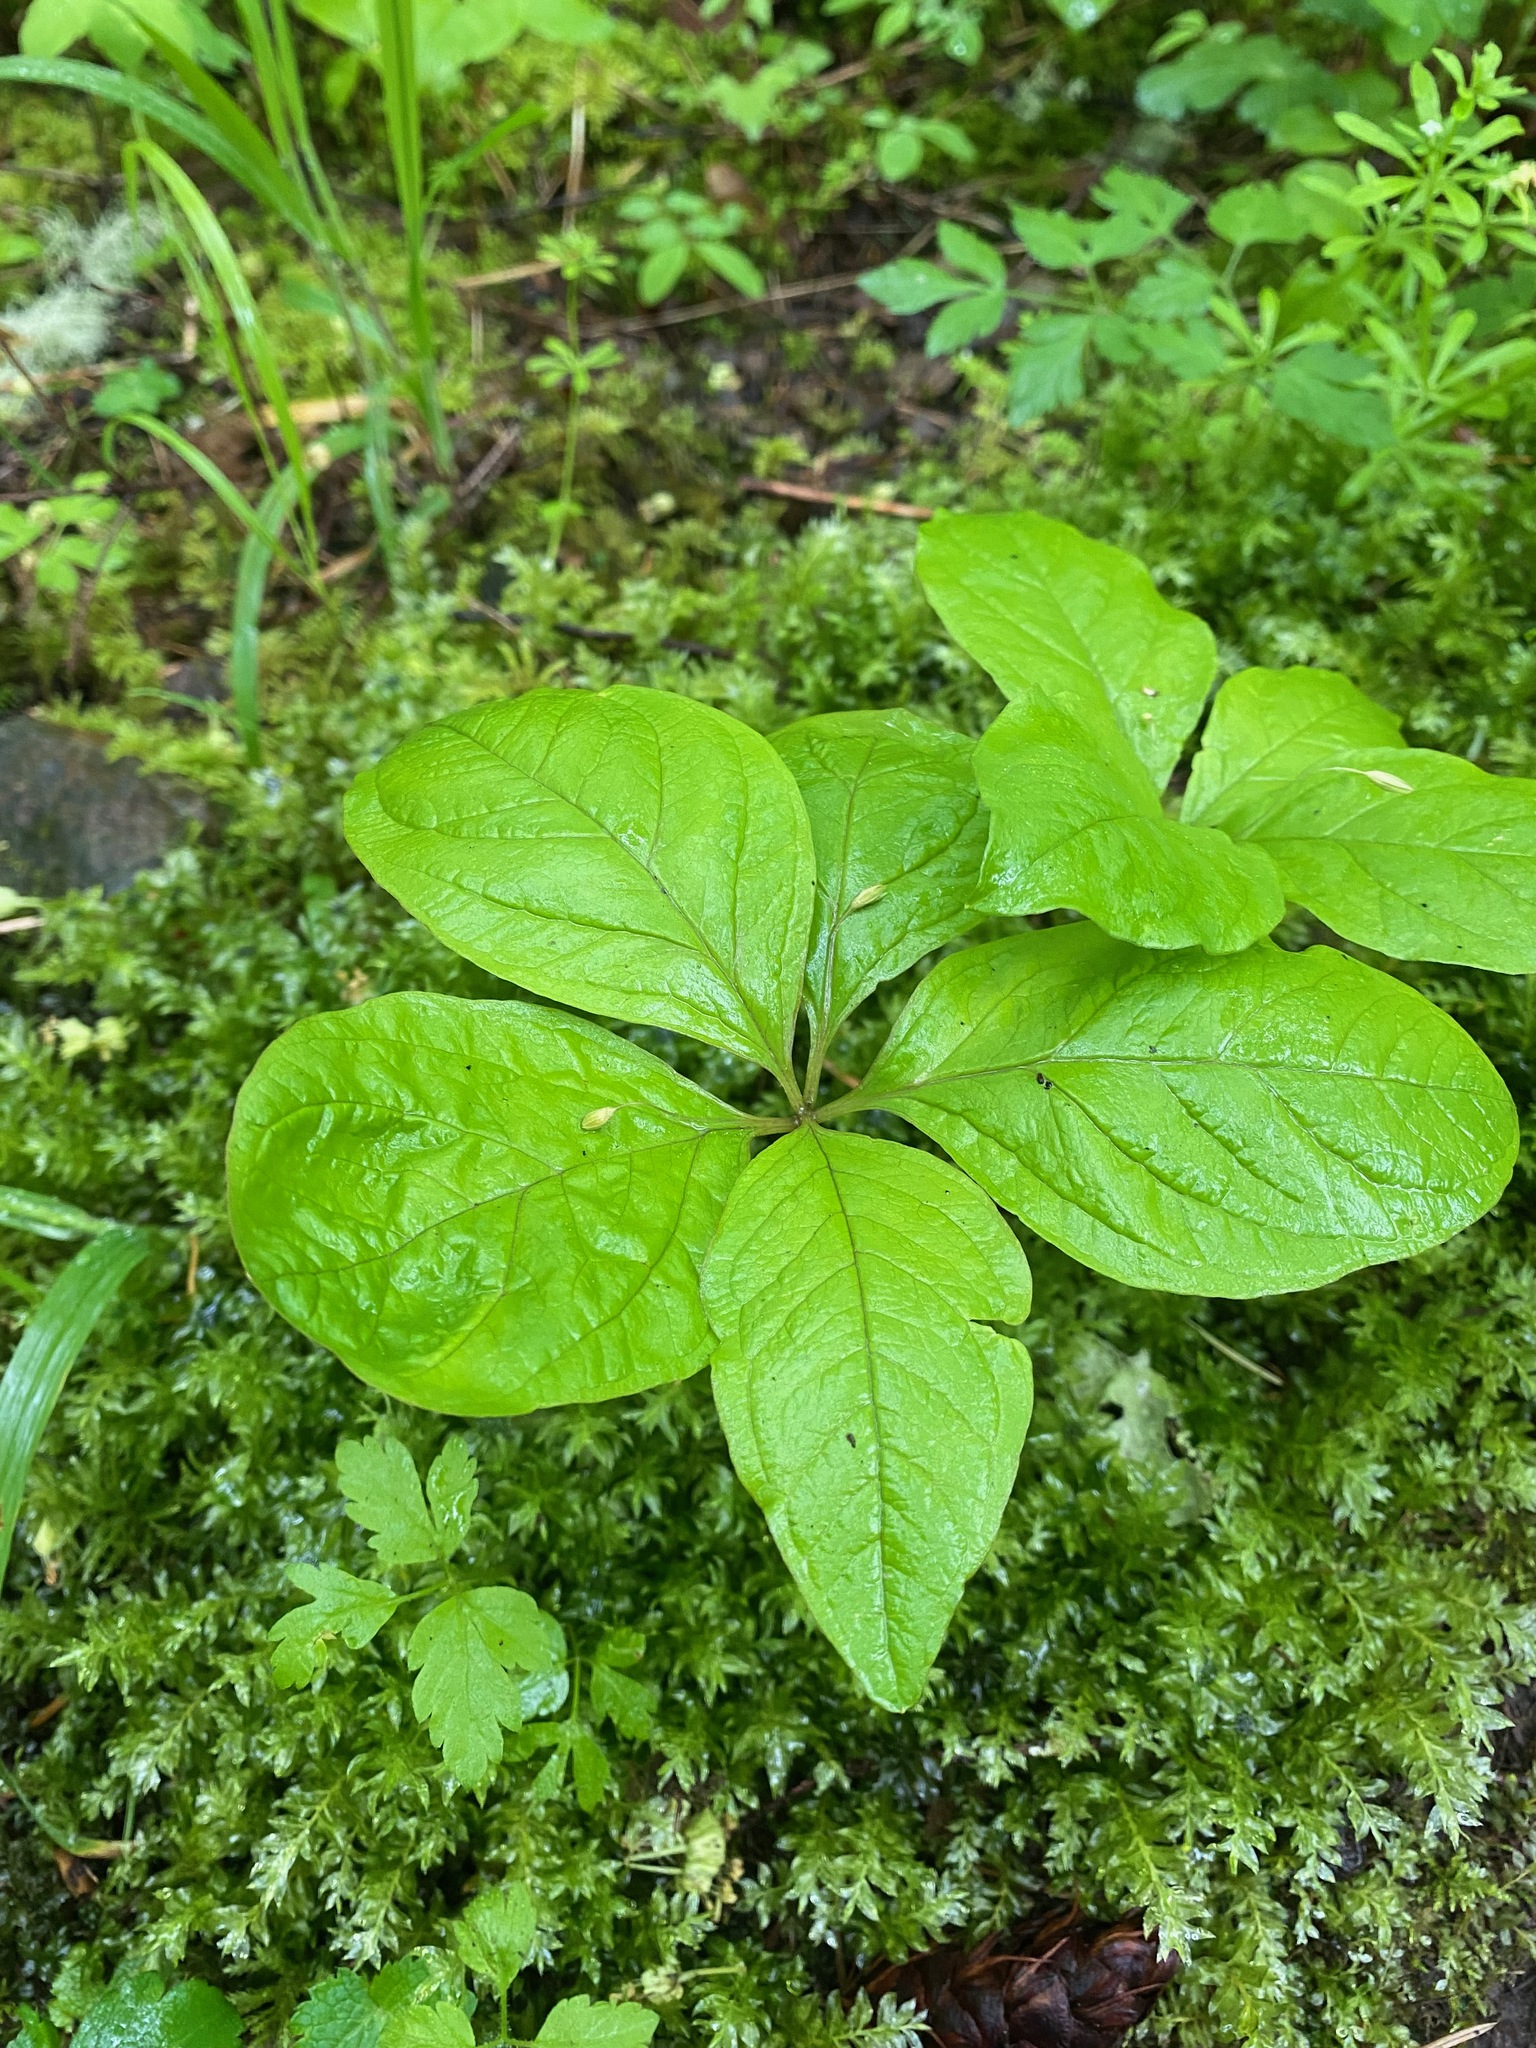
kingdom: Plantae
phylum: Tracheophyta
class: Magnoliopsida
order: Ericales
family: Primulaceae
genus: Lysimachia
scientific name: Lysimachia latifolia
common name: Pacific starflower
